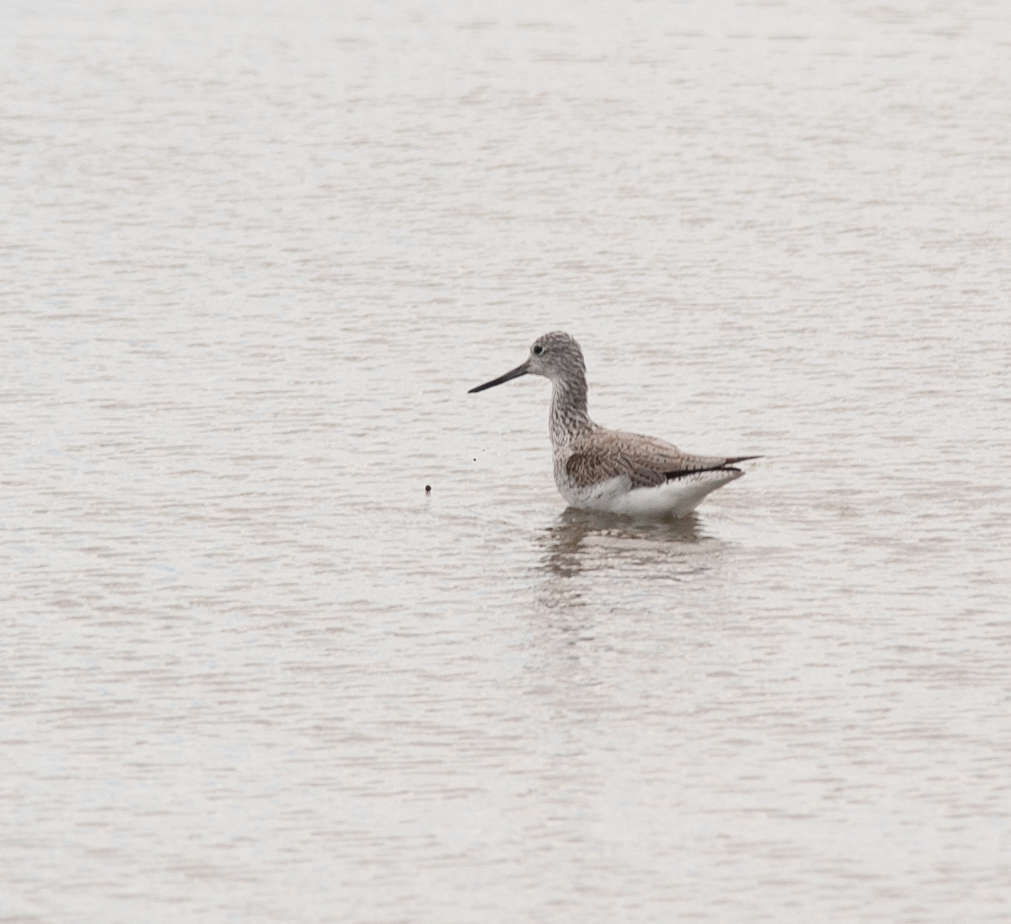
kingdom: Animalia
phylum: Chordata
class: Aves
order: Charadriiformes
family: Scolopacidae
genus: Tringa
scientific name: Tringa nebularia
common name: Common greenshank
